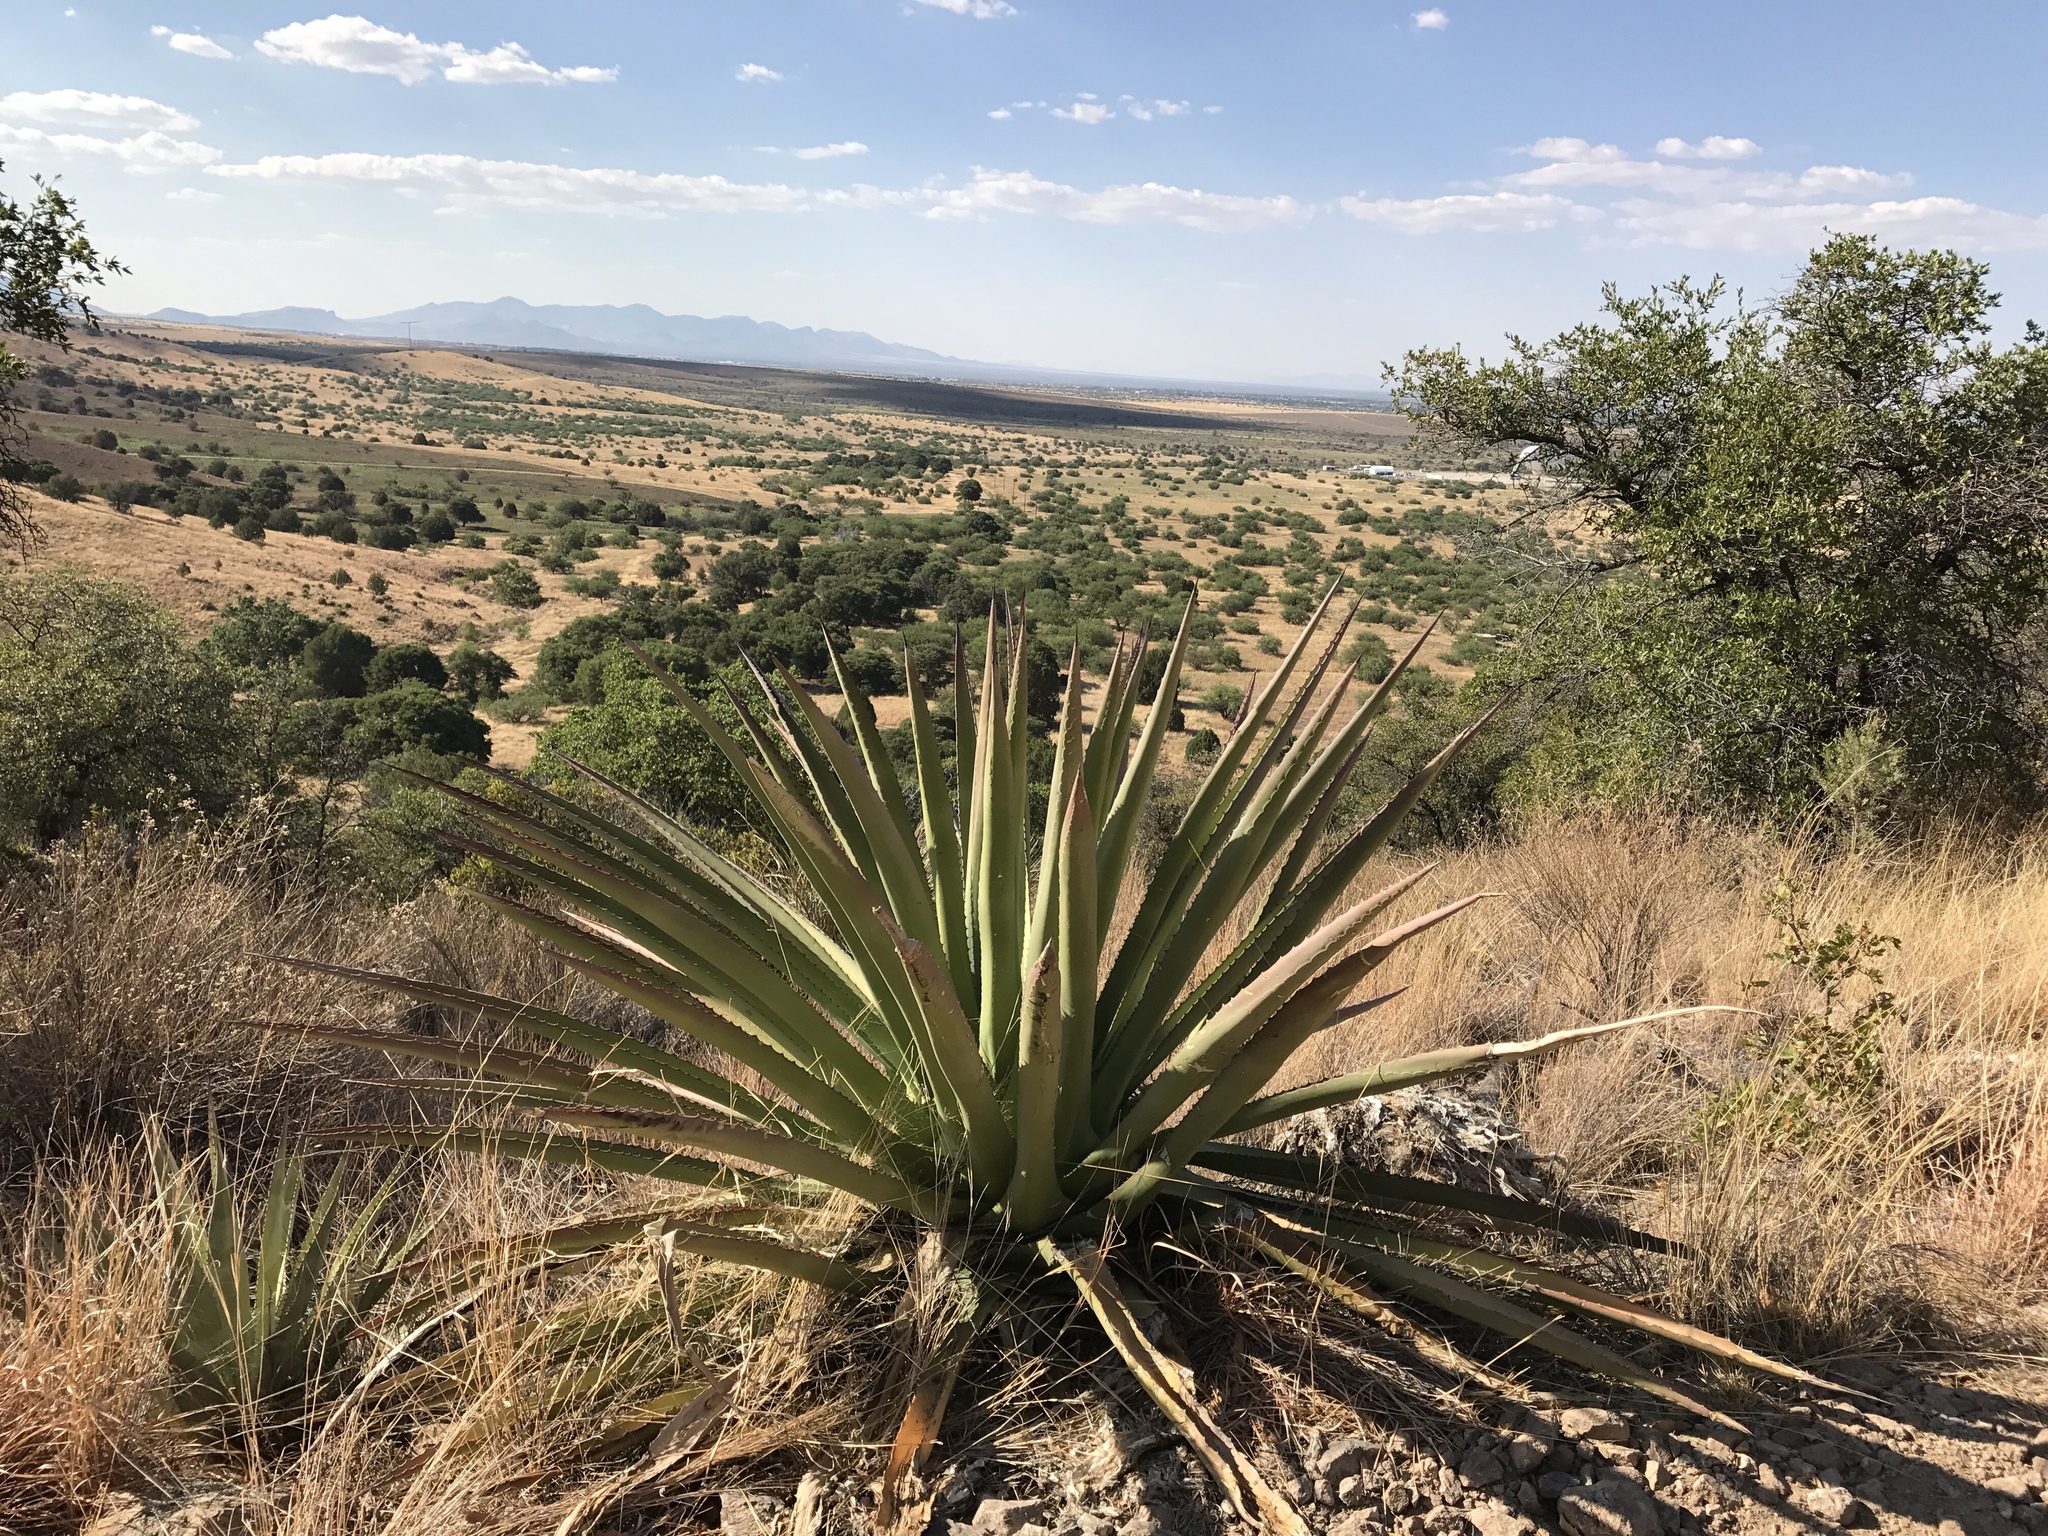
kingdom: Plantae
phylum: Tracheophyta
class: Liliopsida
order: Asparagales
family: Asparagaceae
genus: Agave
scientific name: Agave palmeri
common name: Palmer agave
